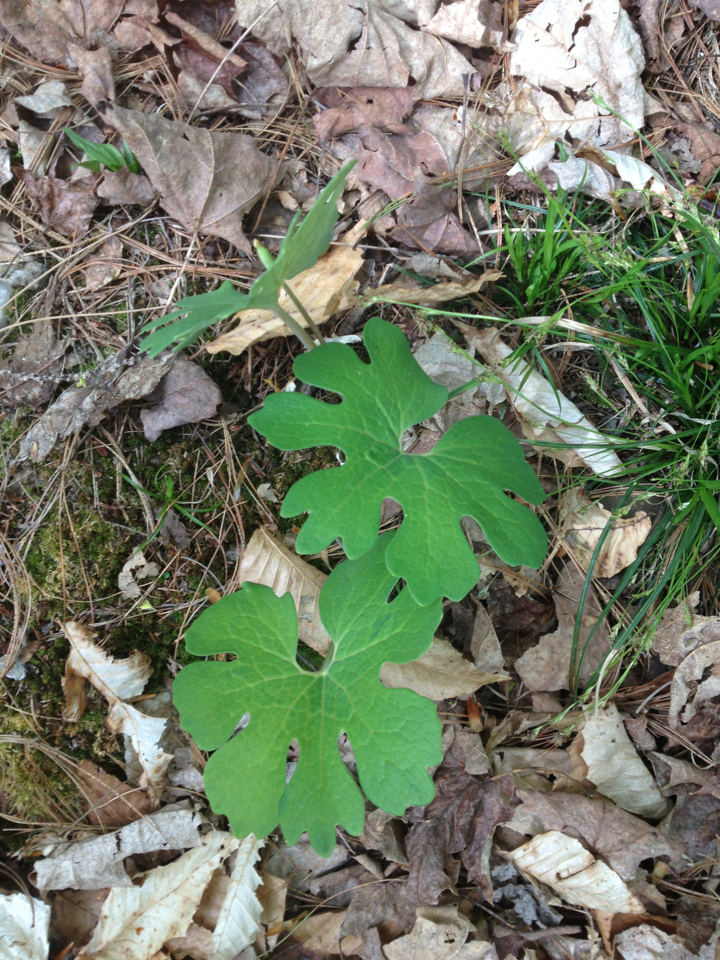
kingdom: Plantae
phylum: Tracheophyta
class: Magnoliopsida
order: Ranunculales
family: Papaveraceae
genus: Sanguinaria
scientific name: Sanguinaria canadensis
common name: Bloodroot
